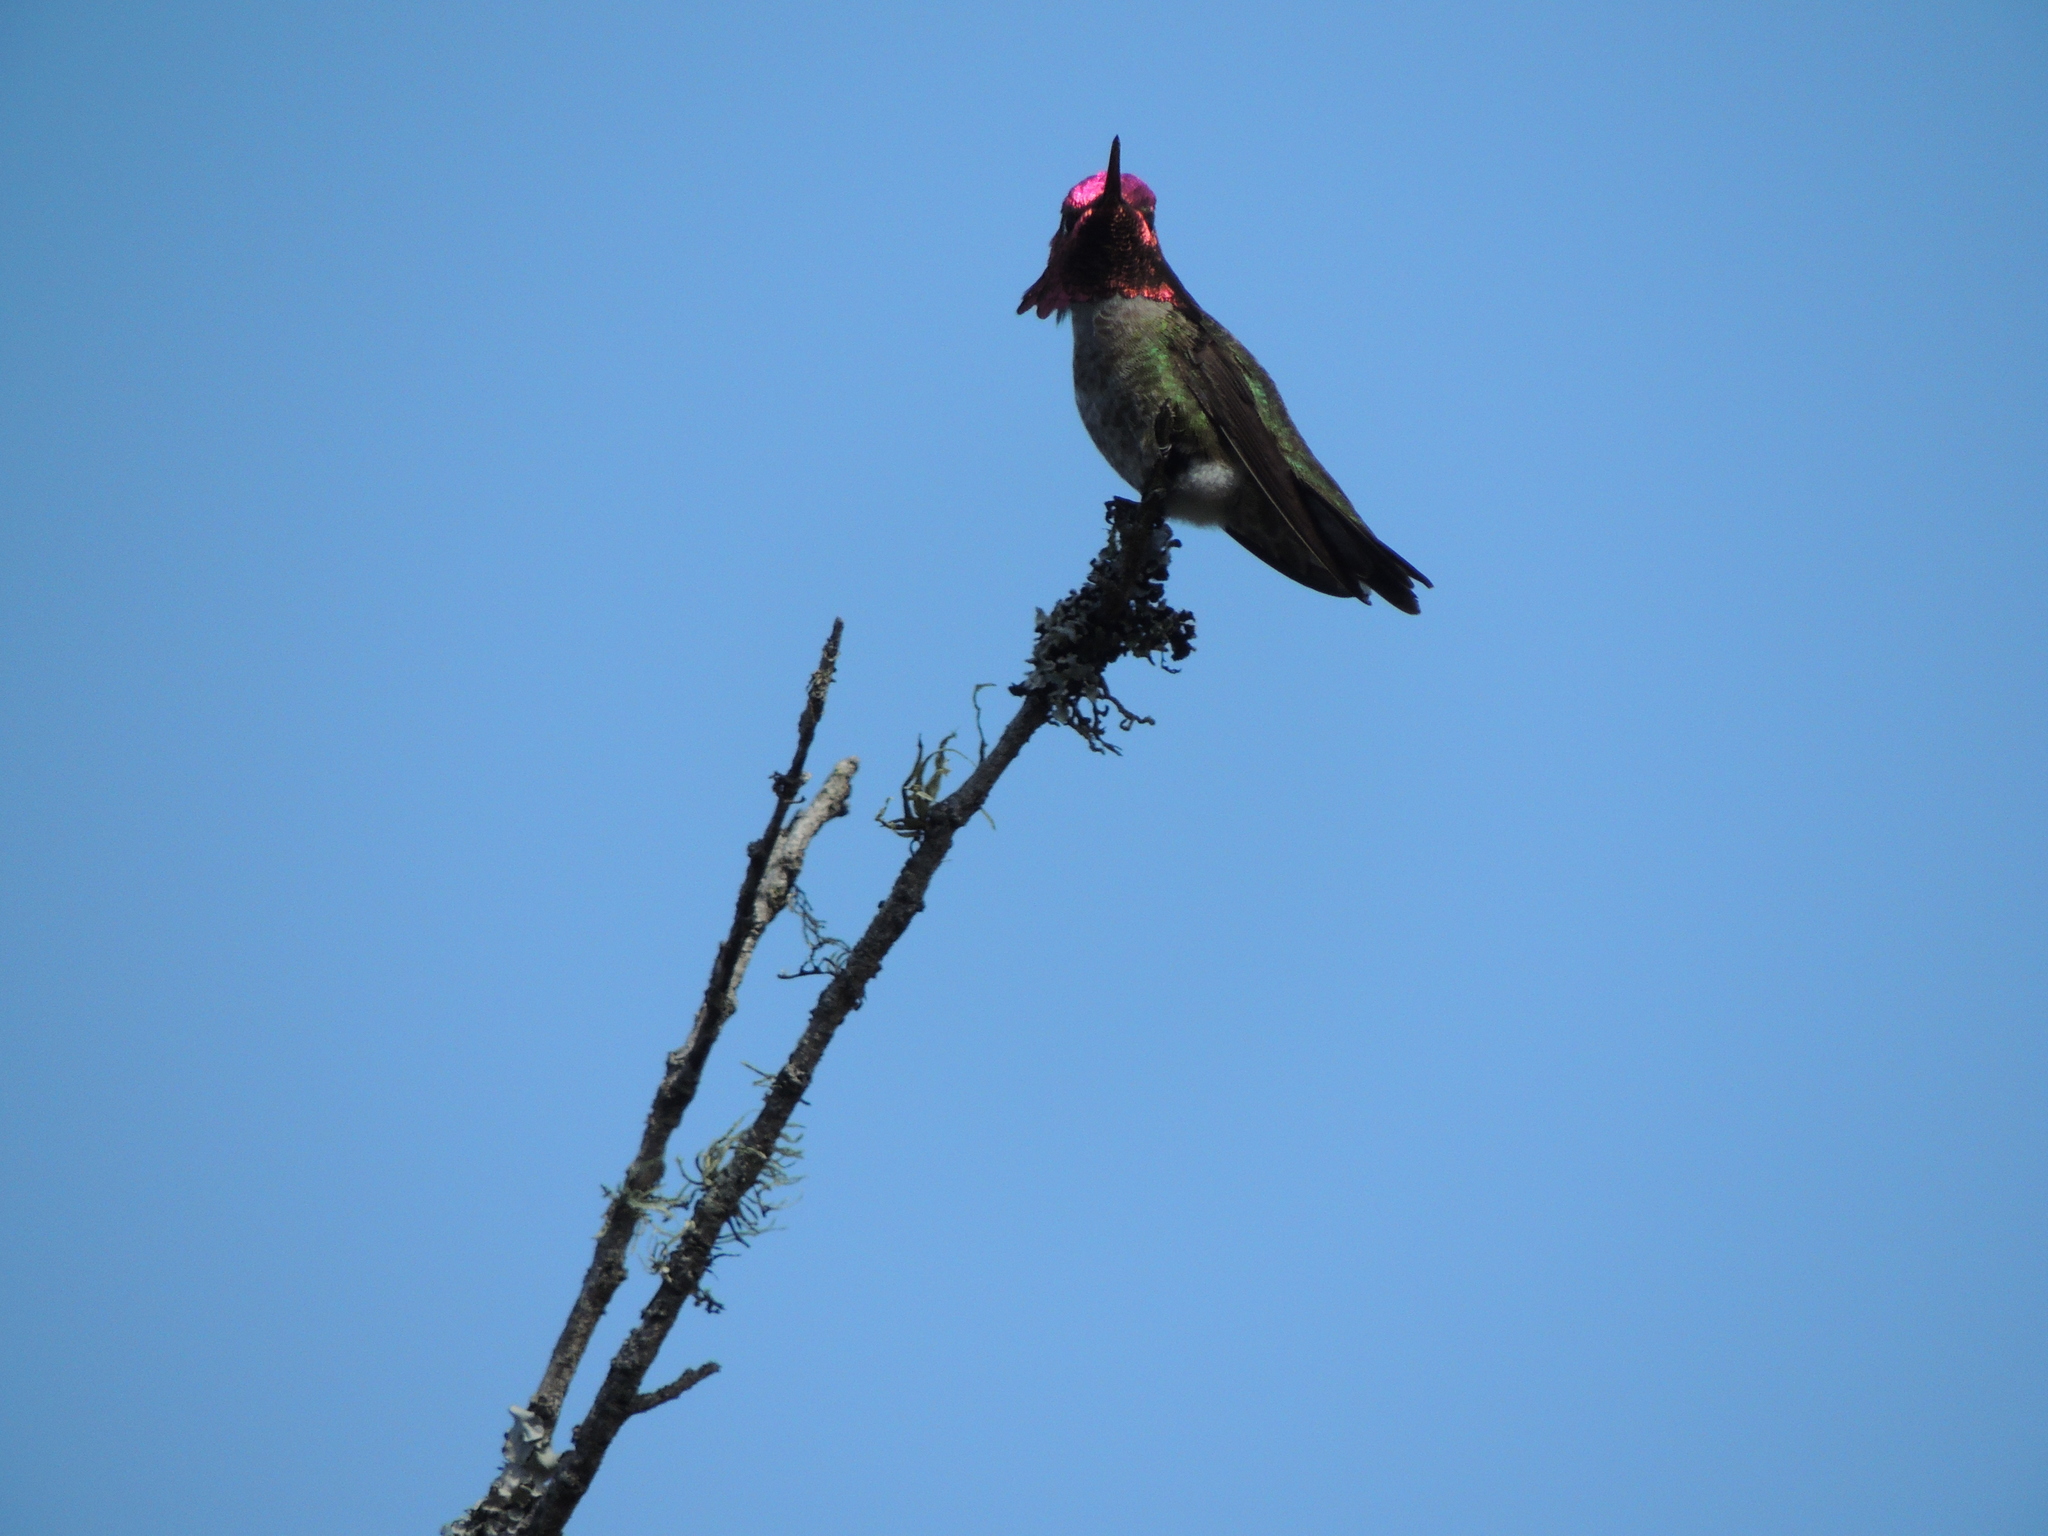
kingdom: Animalia
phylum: Chordata
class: Aves
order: Apodiformes
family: Trochilidae
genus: Calypte
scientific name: Calypte anna
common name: Anna's hummingbird
